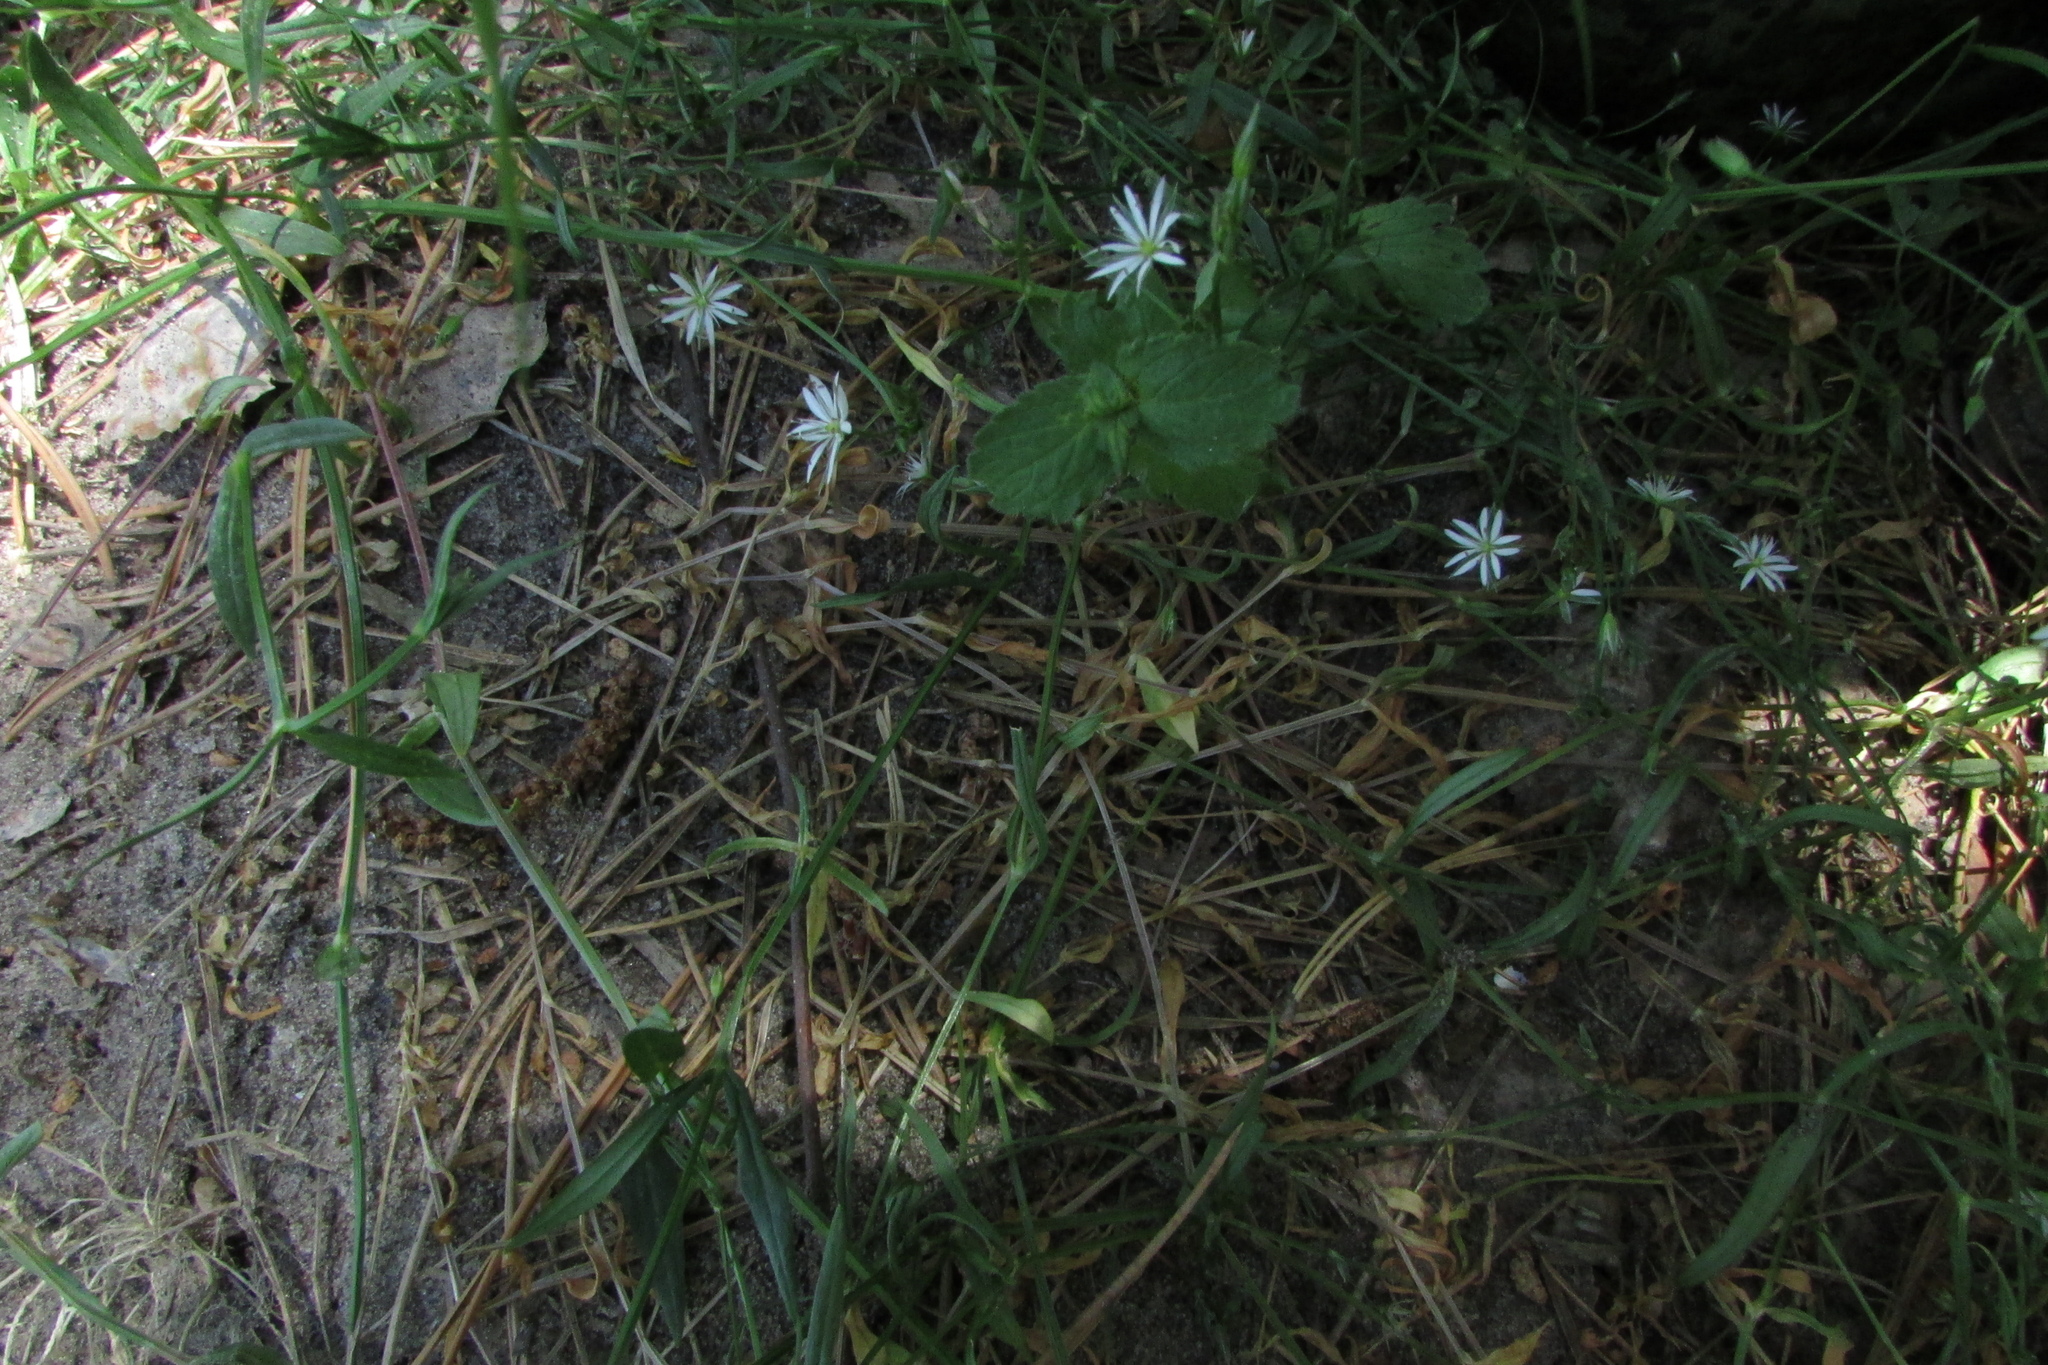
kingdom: Plantae
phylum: Tracheophyta
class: Magnoliopsida
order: Caryophyllales
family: Caryophyllaceae
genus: Stellaria
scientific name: Stellaria graminea
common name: Grass-like starwort
